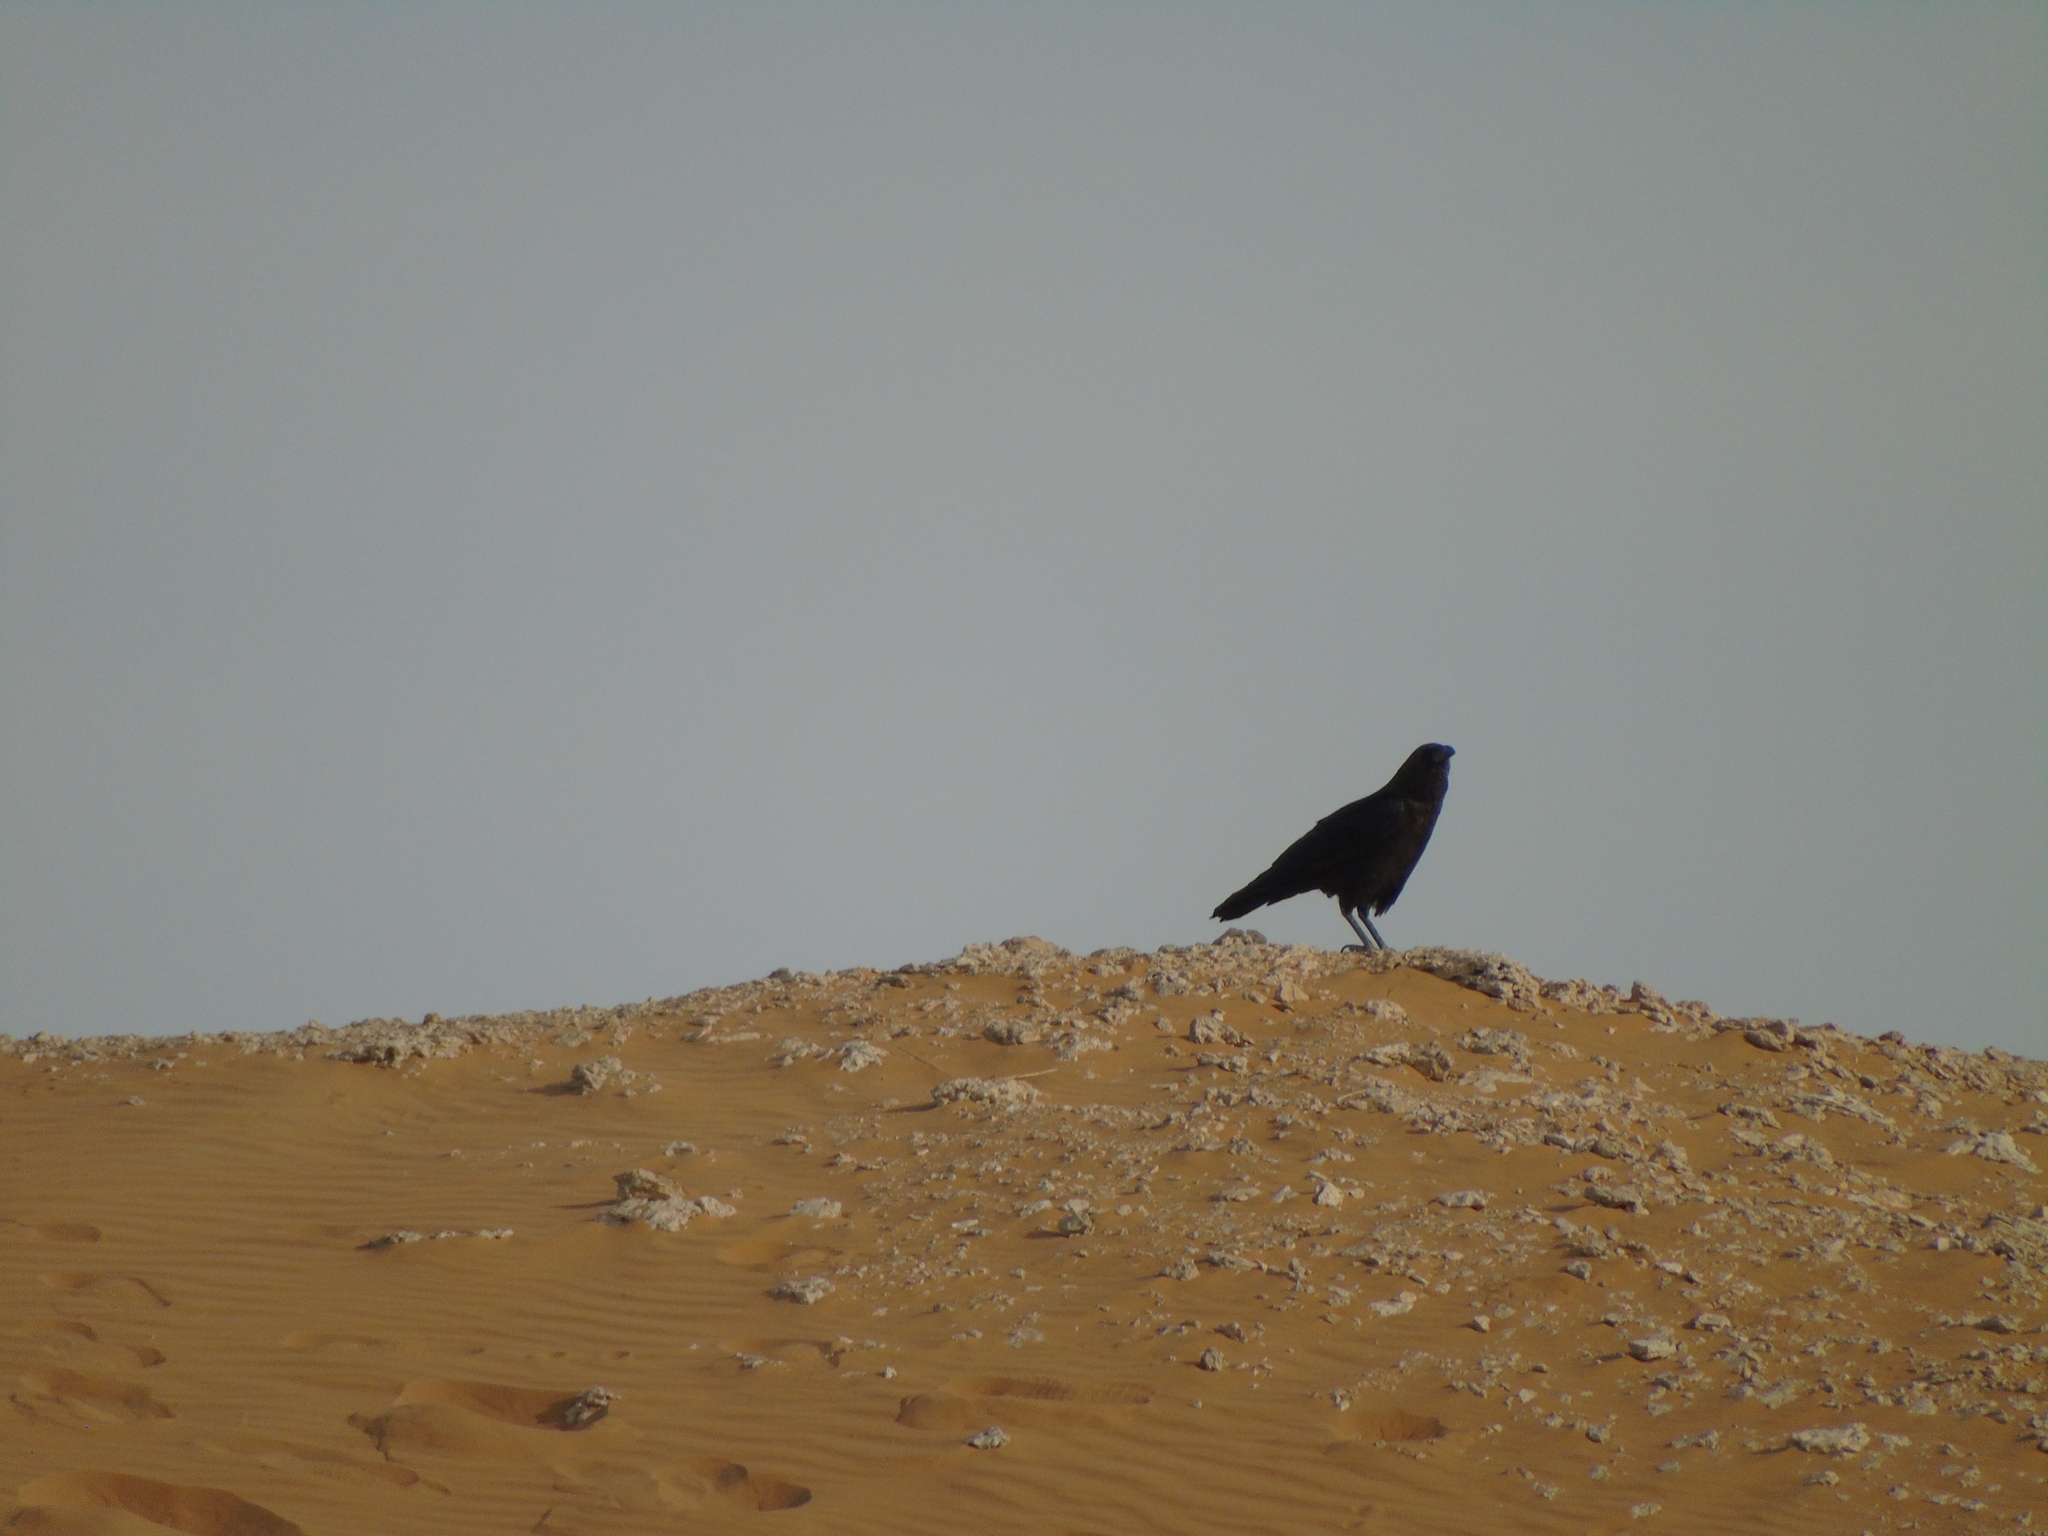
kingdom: Animalia
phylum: Chordata
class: Aves
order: Passeriformes
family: Corvidae
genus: Corvus
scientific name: Corvus ruficollis
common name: Brown-necked raven
